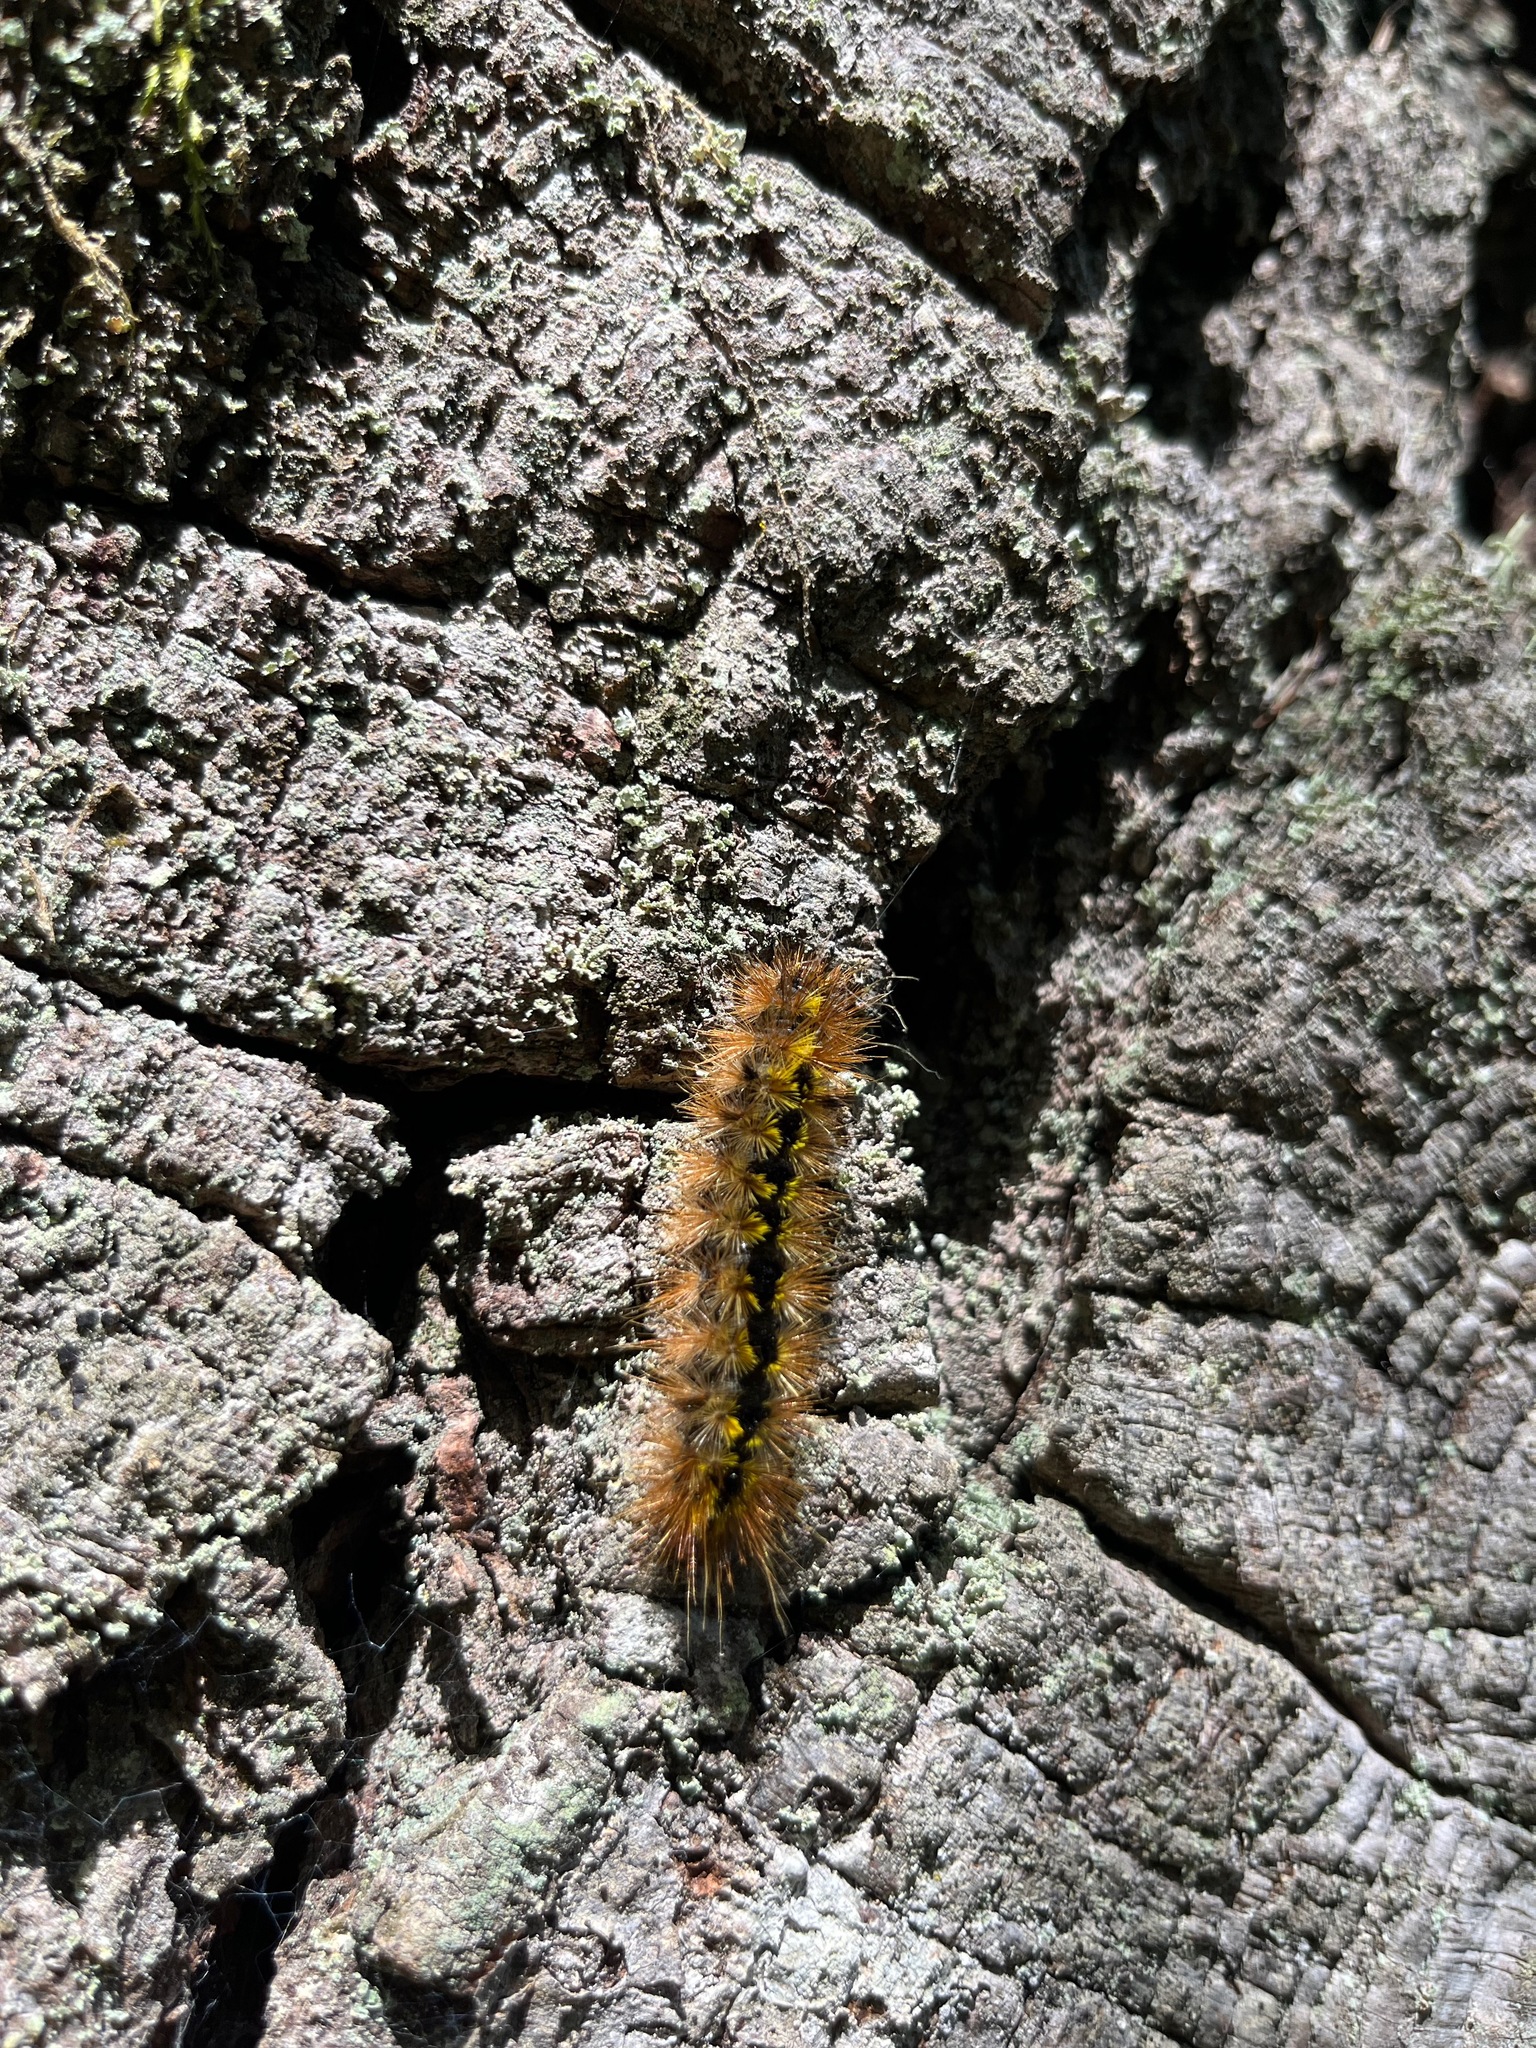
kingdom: Animalia
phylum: Arthropoda
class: Insecta
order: Lepidoptera
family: Erebidae
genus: Lophocampa
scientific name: Lophocampa argentata
